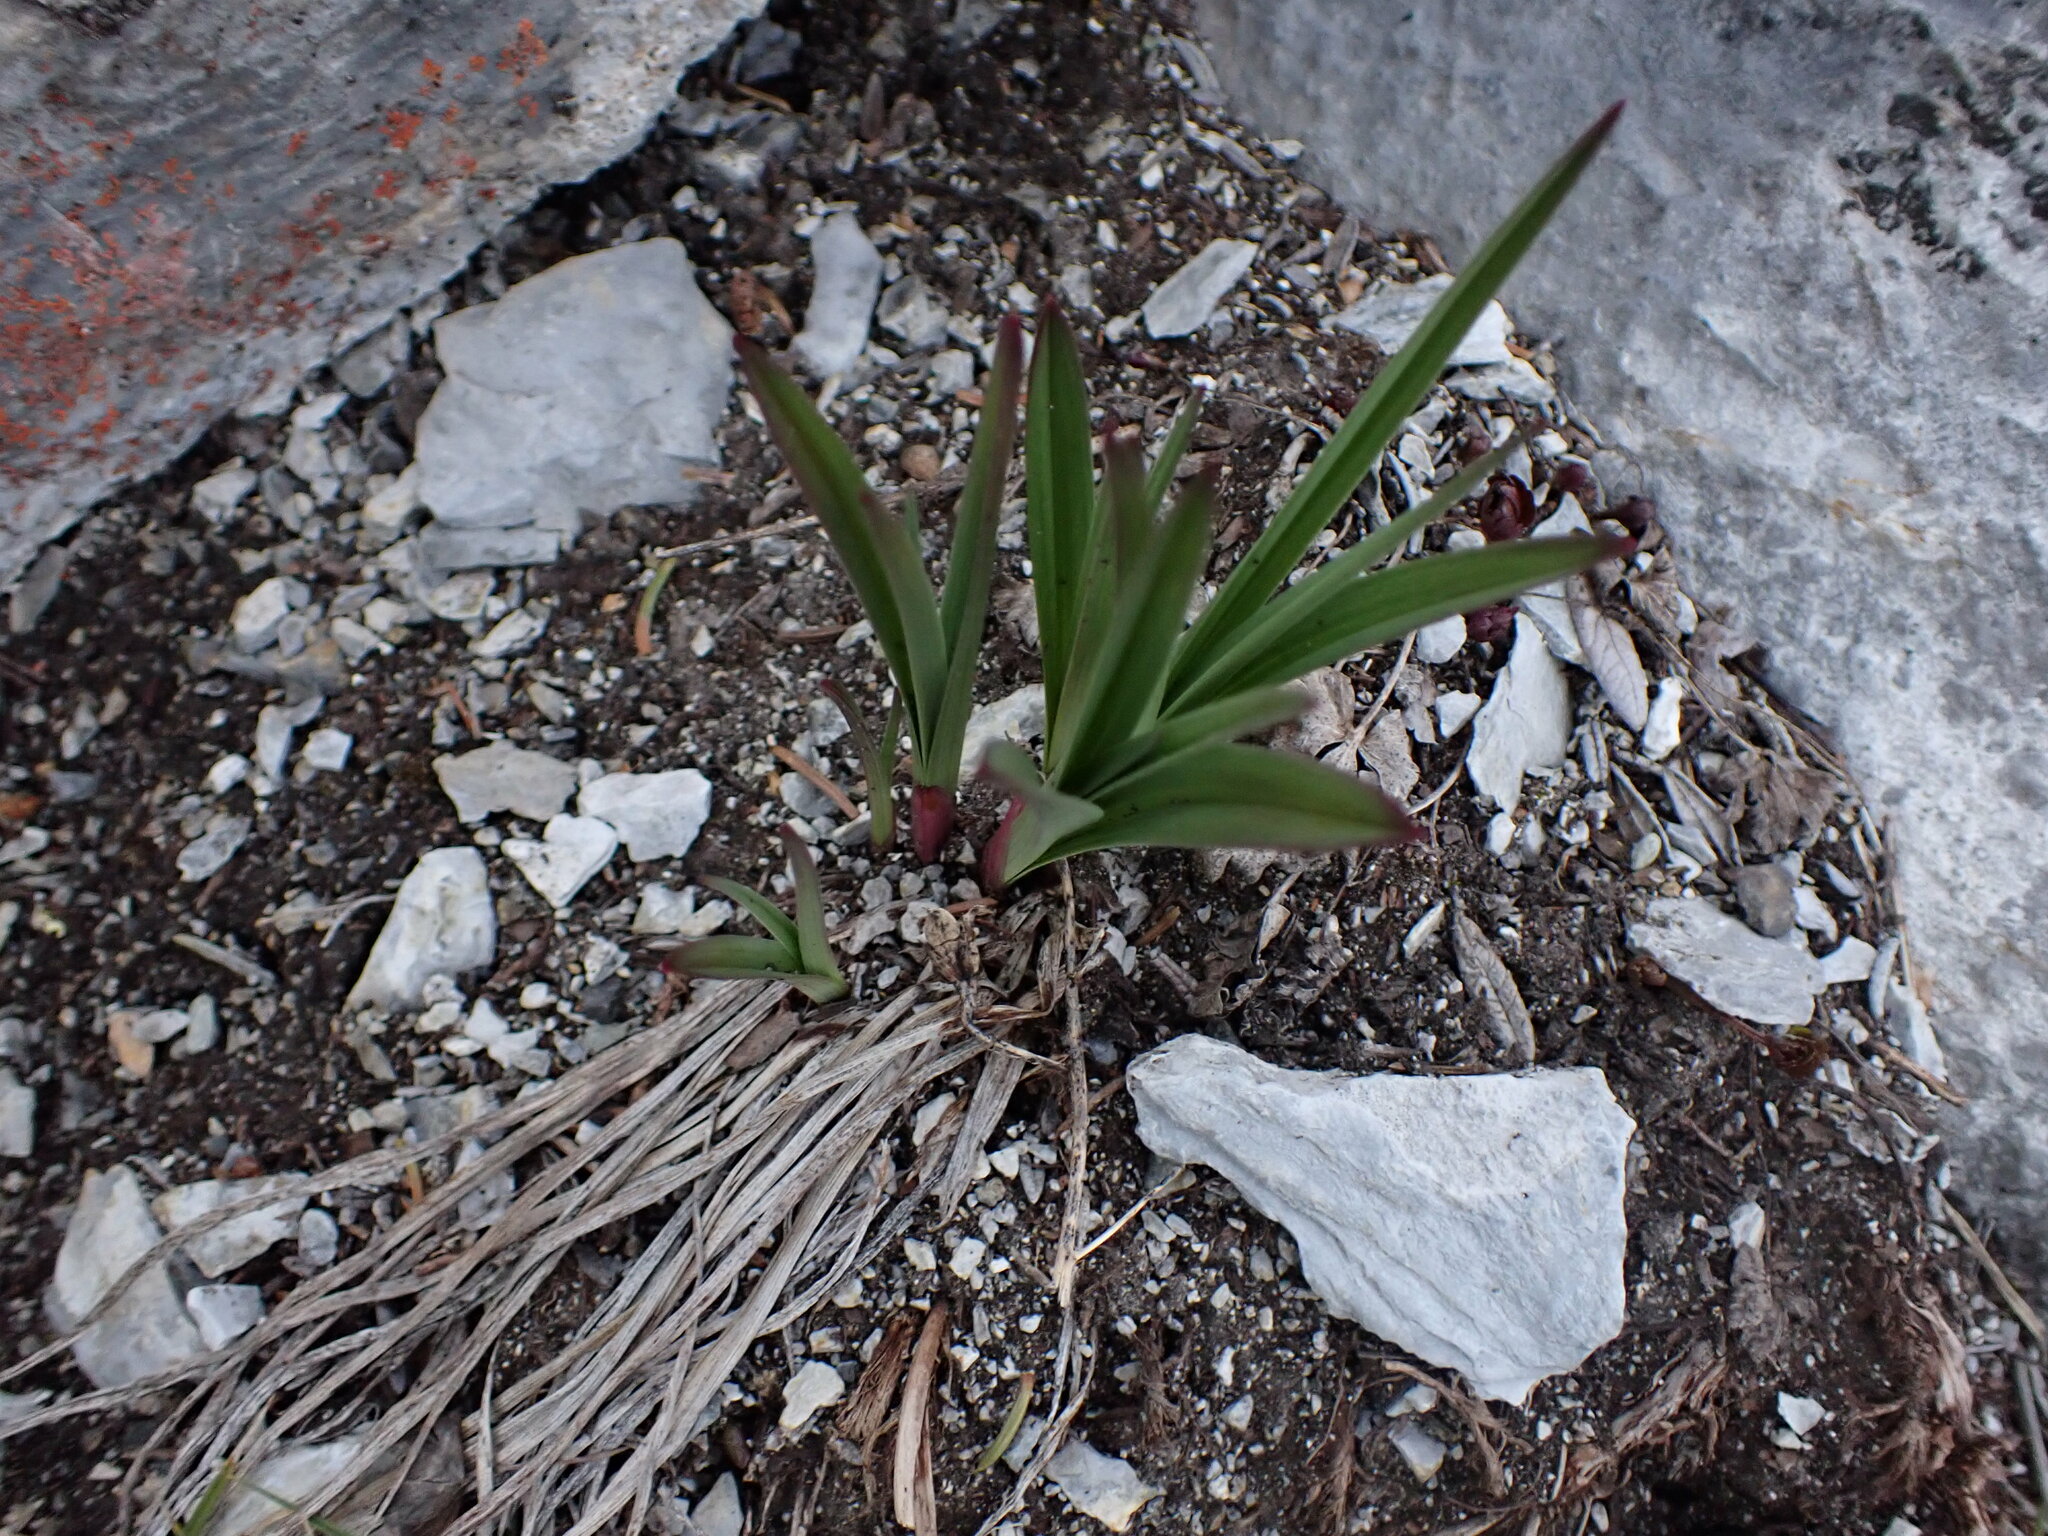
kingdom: Plantae
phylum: Tracheophyta
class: Liliopsida
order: Liliales
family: Melanthiaceae
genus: Anticlea
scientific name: Anticlea elegans
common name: Mountain death camas
